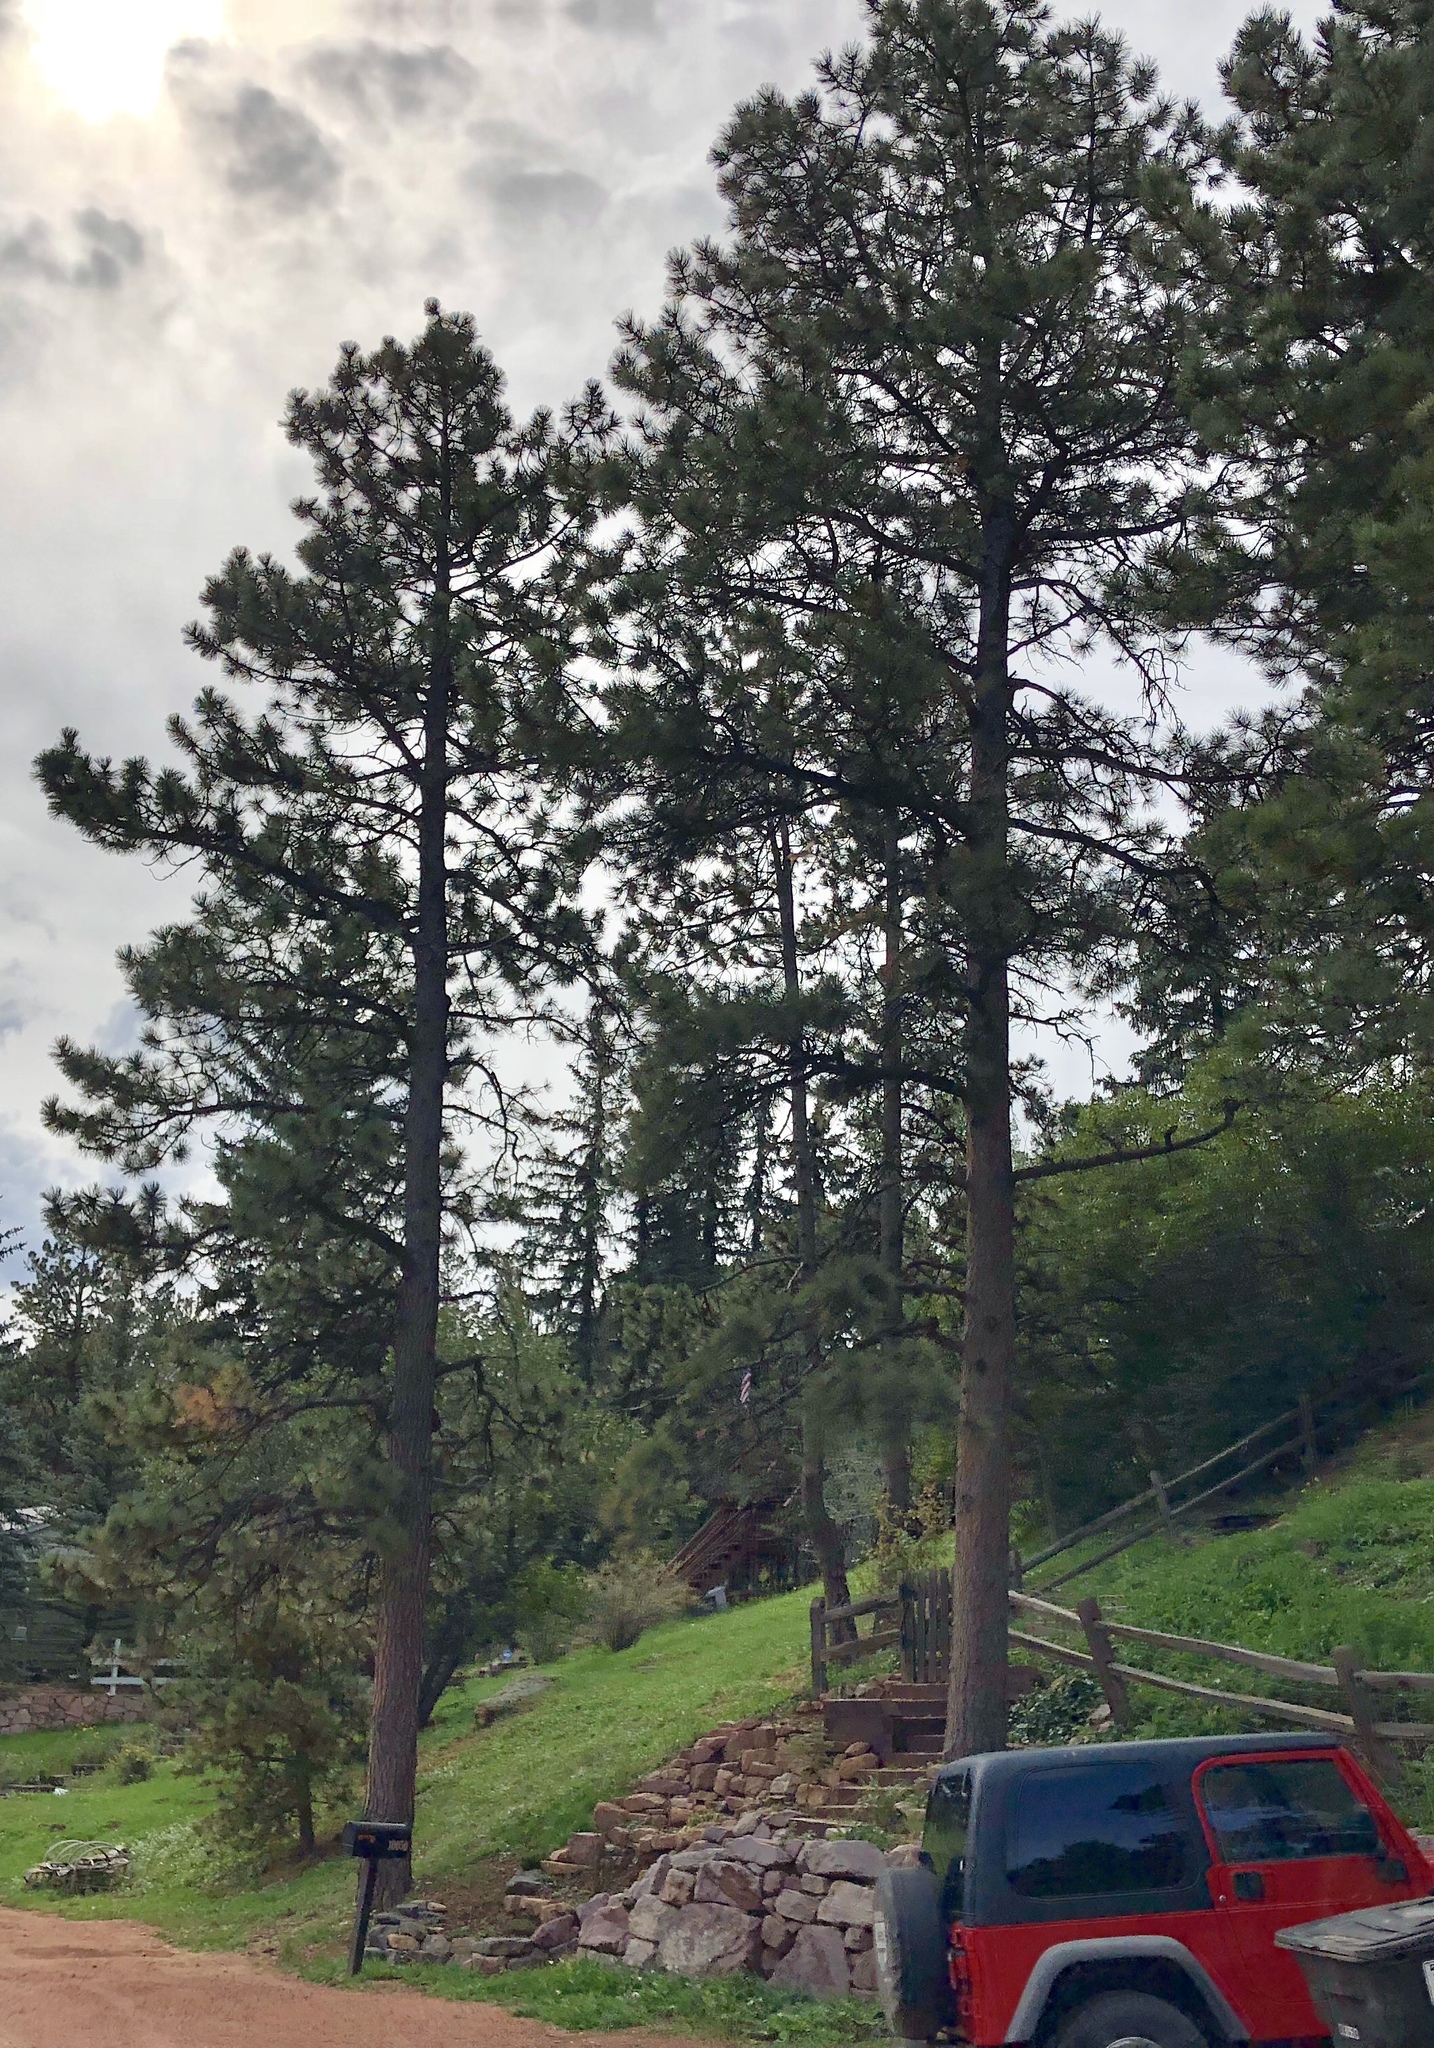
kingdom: Plantae
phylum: Tracheophyta
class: Pinopsida
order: Pinales
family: Pinaceae
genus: Pinus
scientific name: Pinus ponderosa
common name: Western yellow-pine
